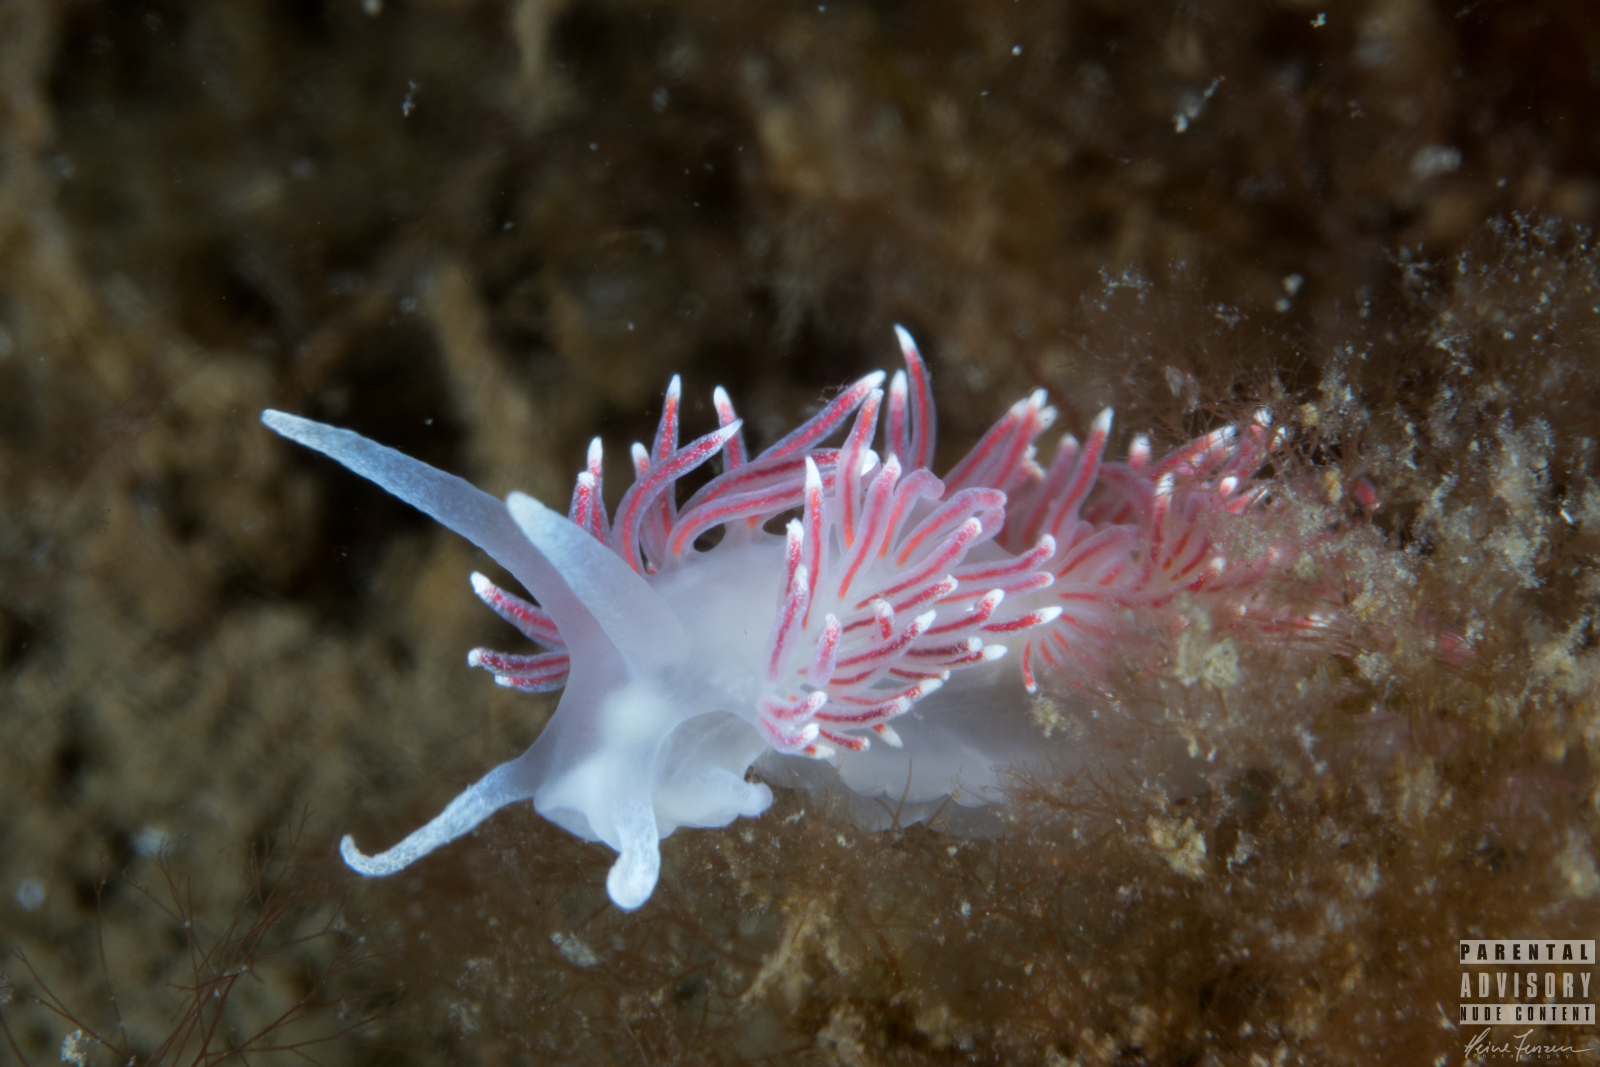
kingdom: Animalia
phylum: Mollusca
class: Gastropoda
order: Nudibranchia
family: Flabellinidae
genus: Carronella
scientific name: Carronella pellucida
